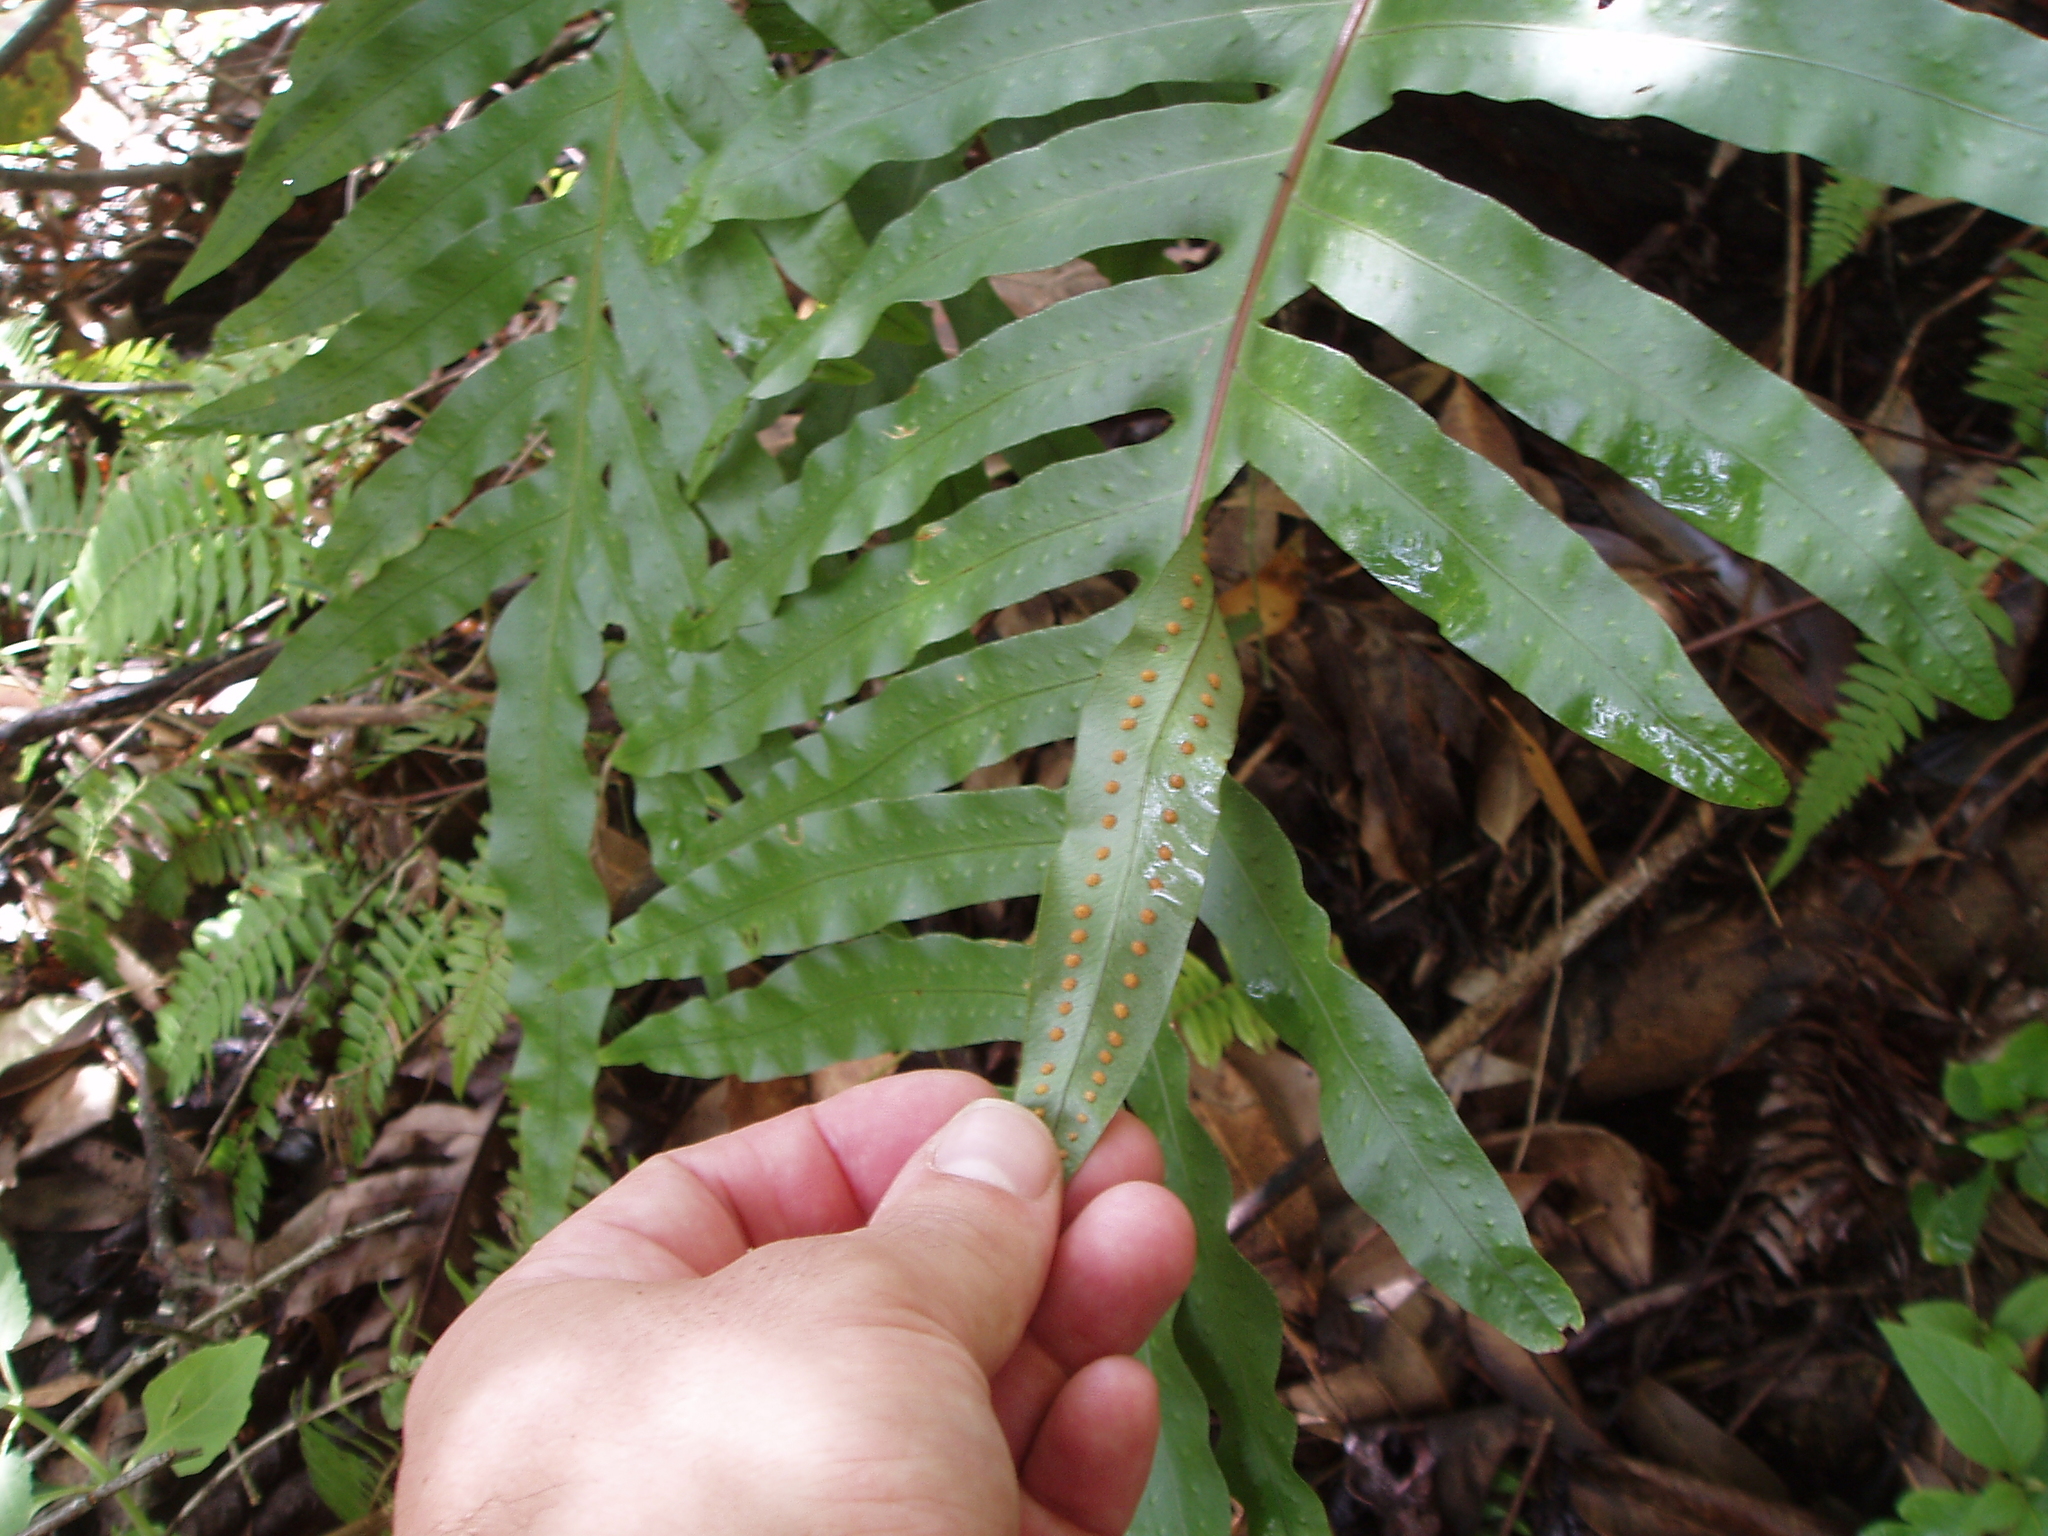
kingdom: Plantae
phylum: Tracheophyta
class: Polypodiopsida
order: Polypodiales
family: Polypodiaceae
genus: Phlebodium
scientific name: Phlebodium pseudoaureum
